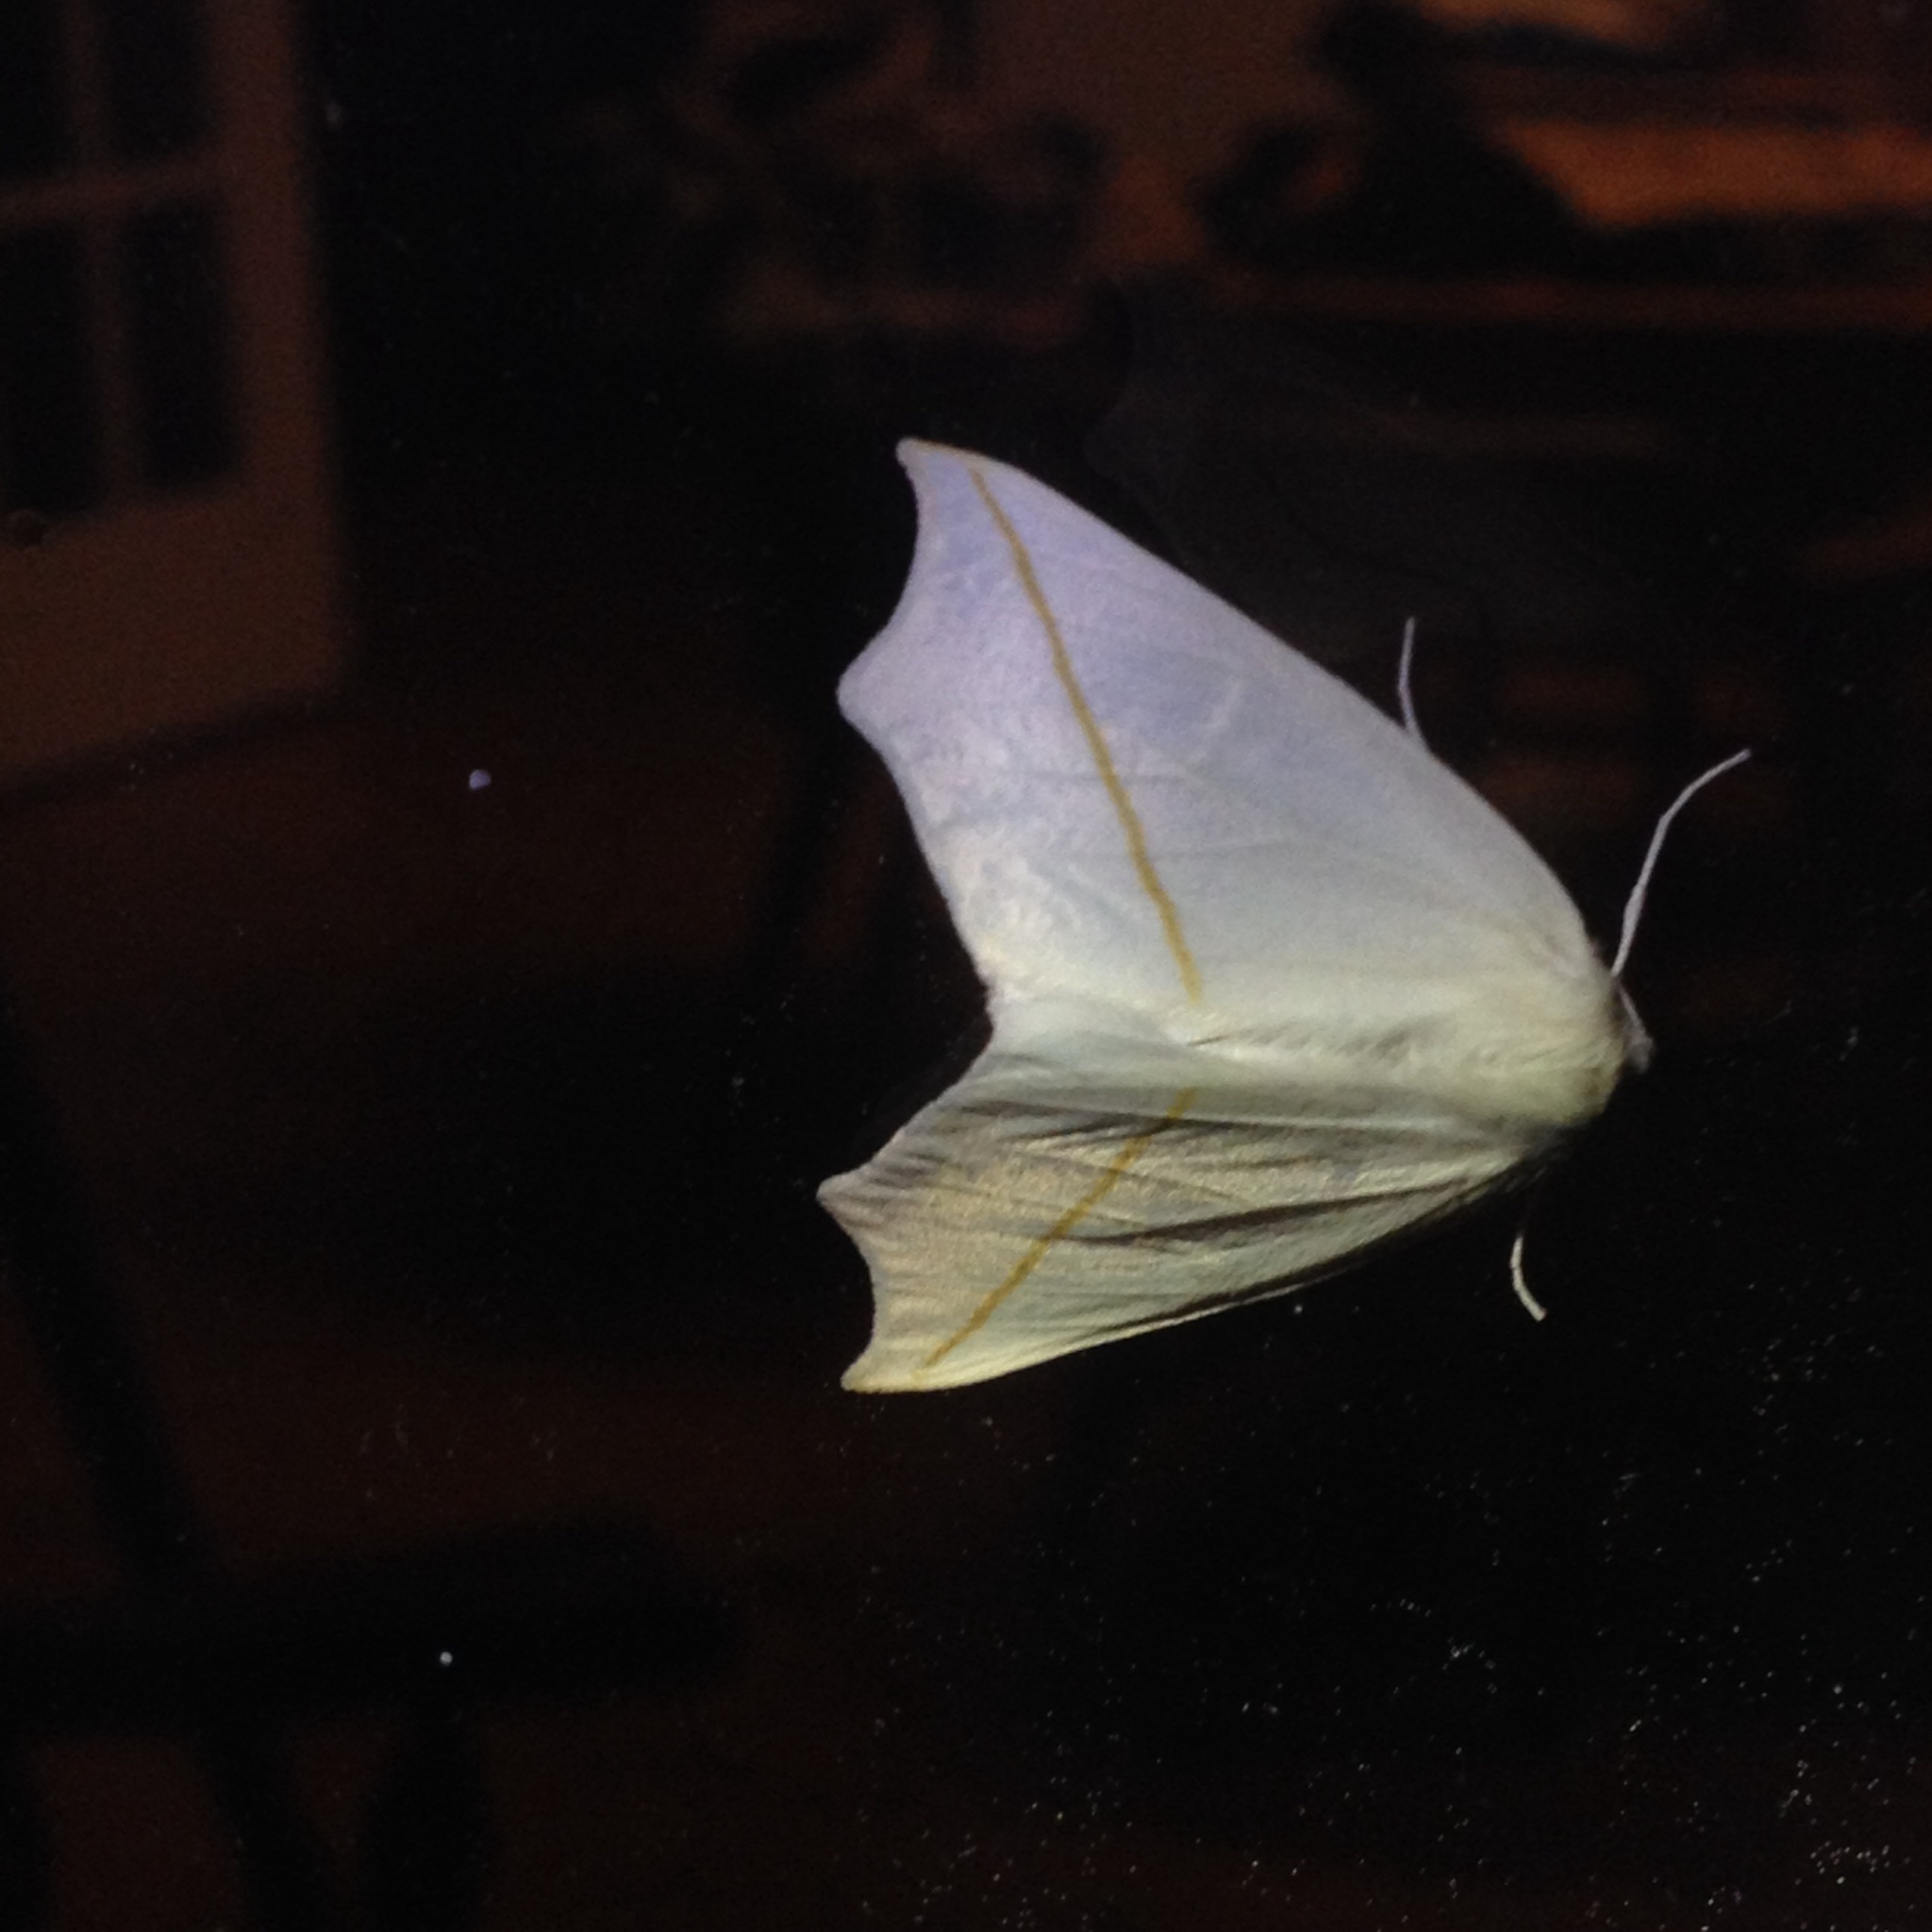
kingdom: Animalia
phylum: Arthropoda
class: Insecta
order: Lepidoptera
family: Geometridae
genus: Tetracis
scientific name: Tetracis cachexiata
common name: White slant-line
